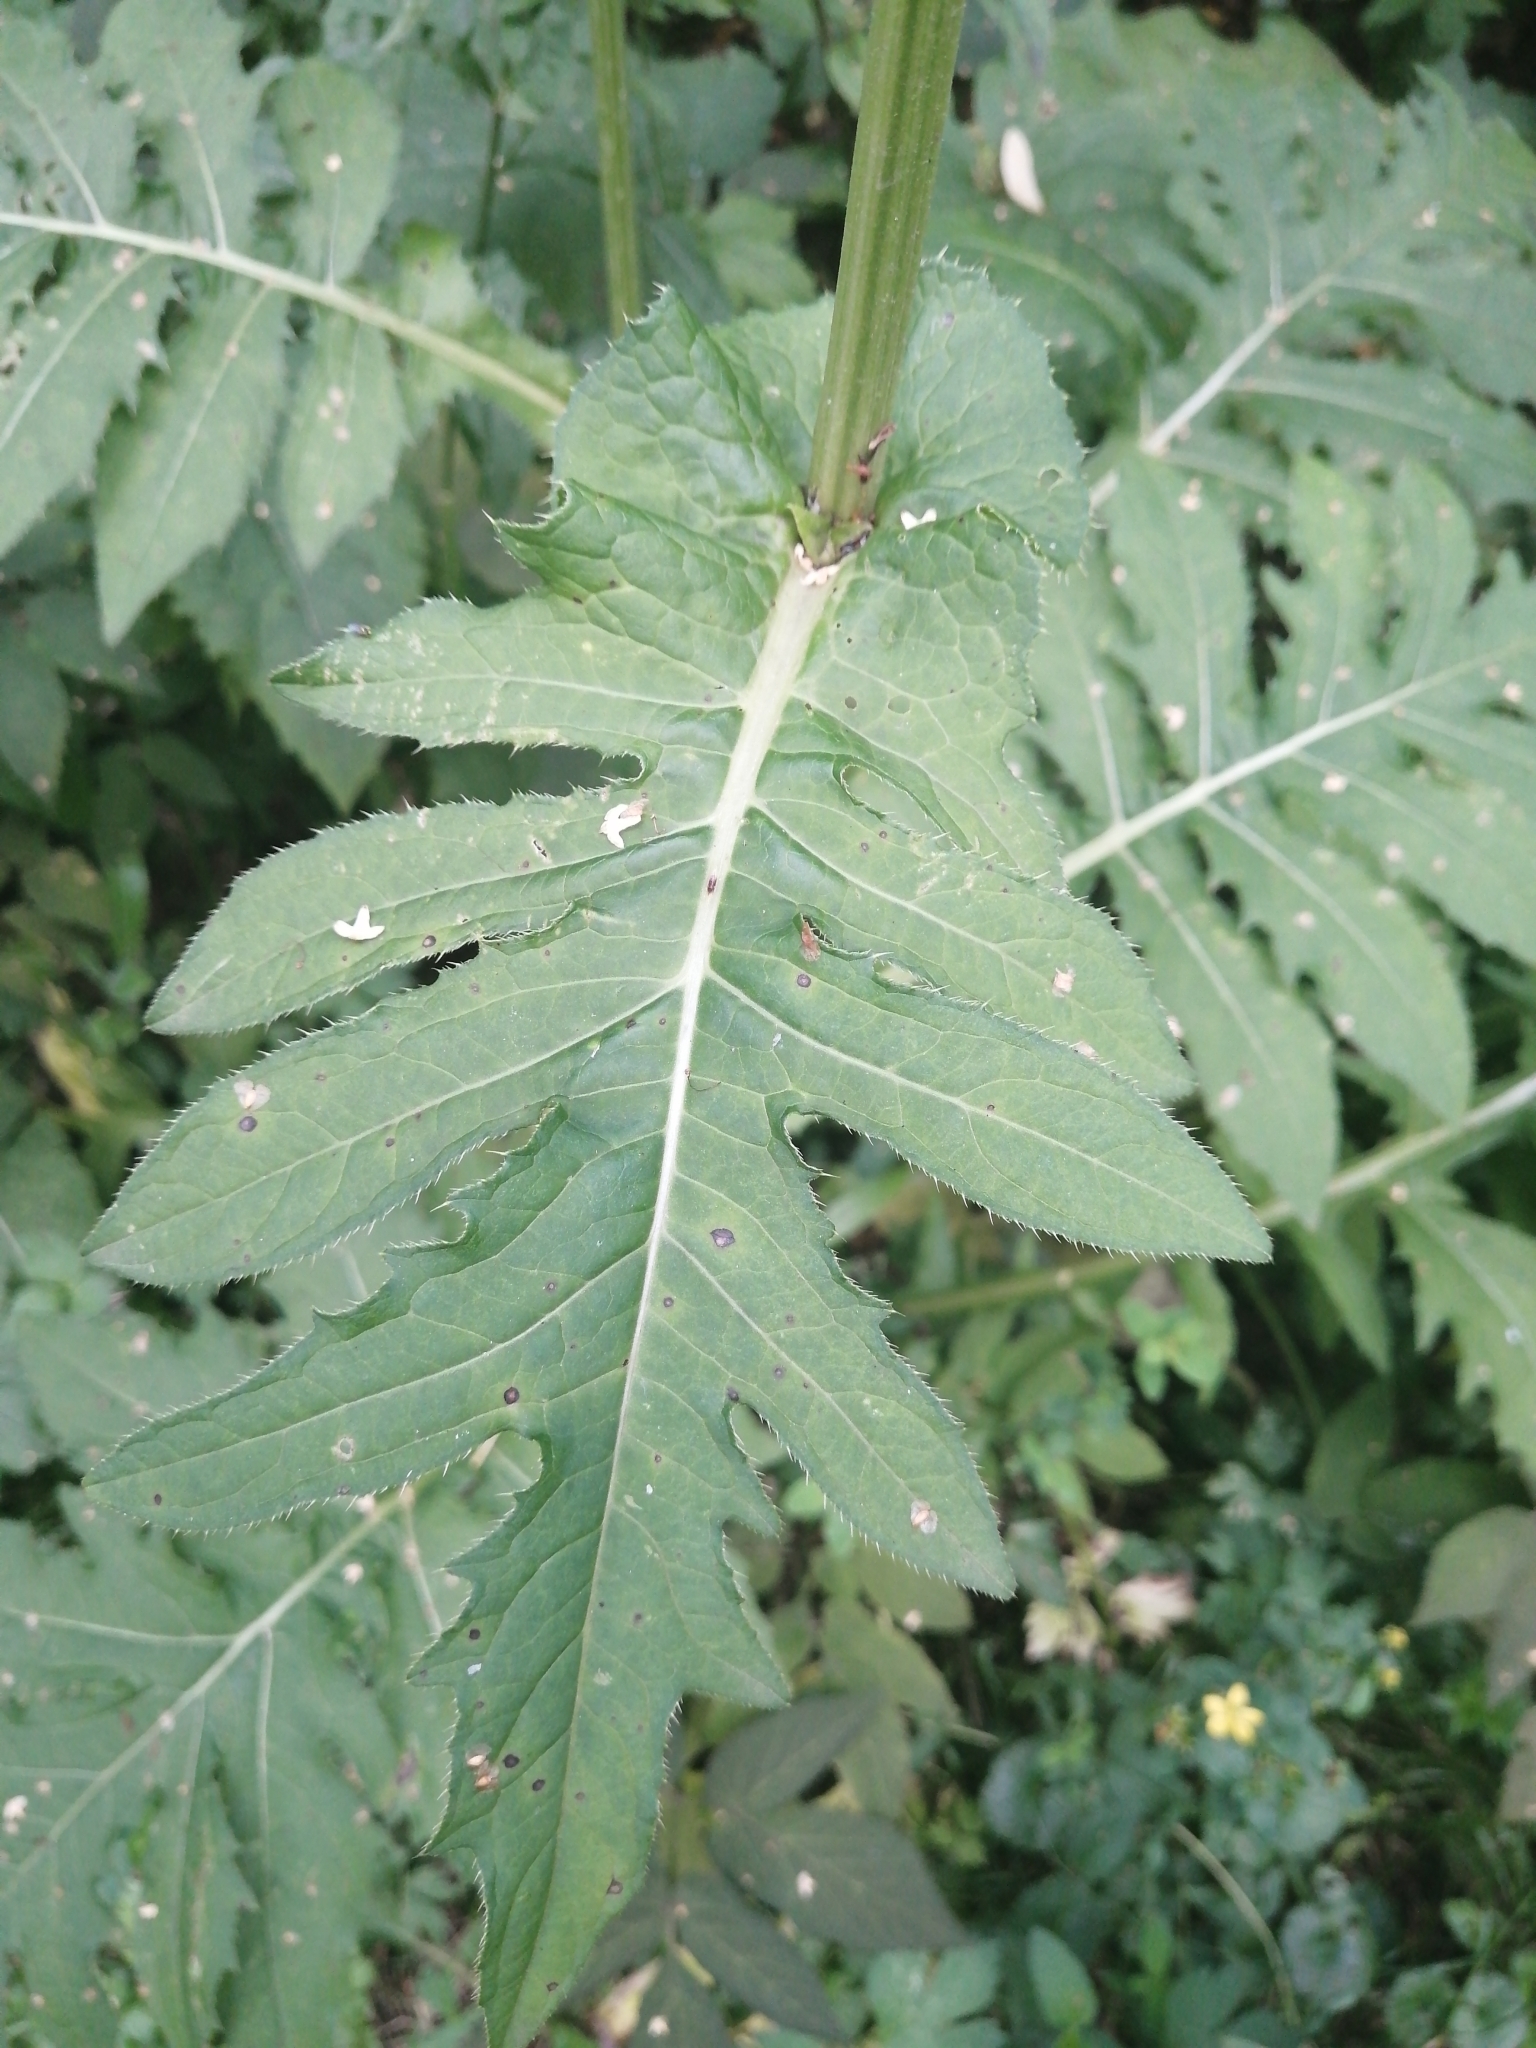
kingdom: Plantae
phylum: Tracheophyta
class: Magnoliopsida
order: Asterales
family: Asteraceae
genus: Cirsium
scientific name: Cirsium oleraceum
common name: Cabbage thistle
